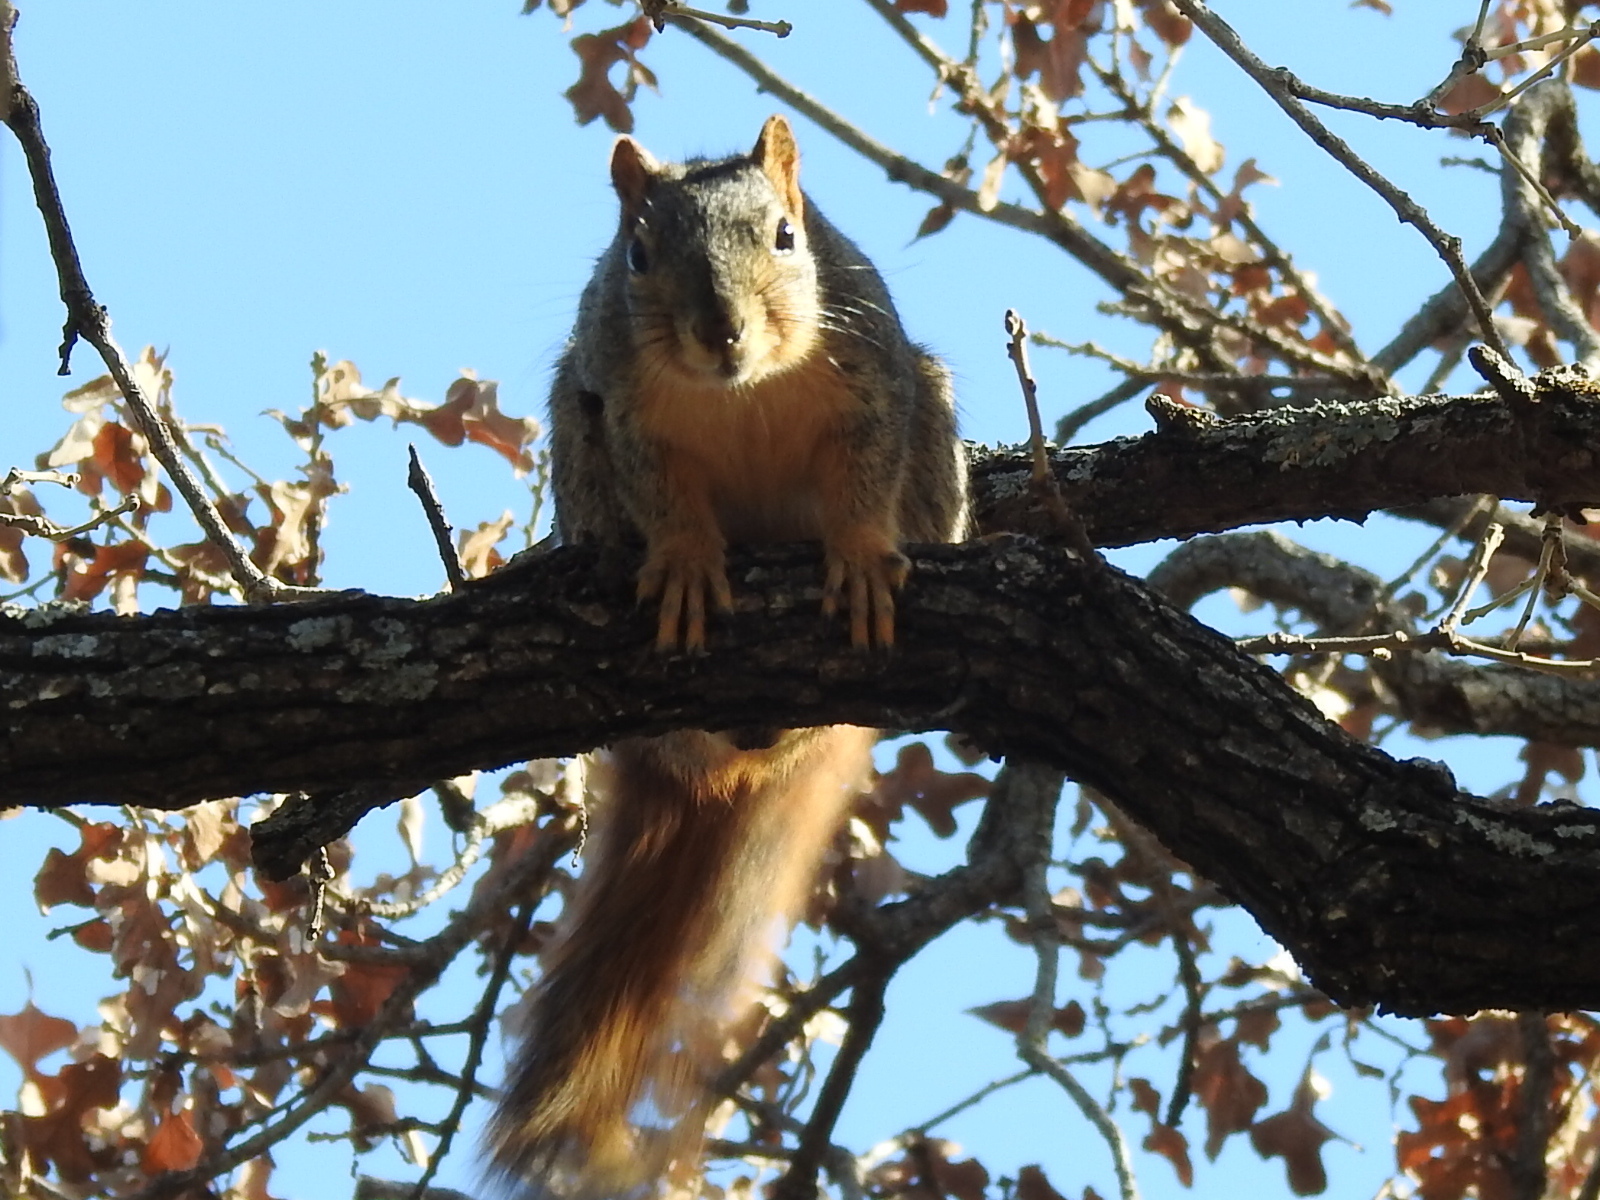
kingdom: Animalia
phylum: Chordata
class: Mammalia
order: Rodentia
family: Sciuridae
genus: Sciurus
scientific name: Sciurus niger
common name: Fox squirrel
